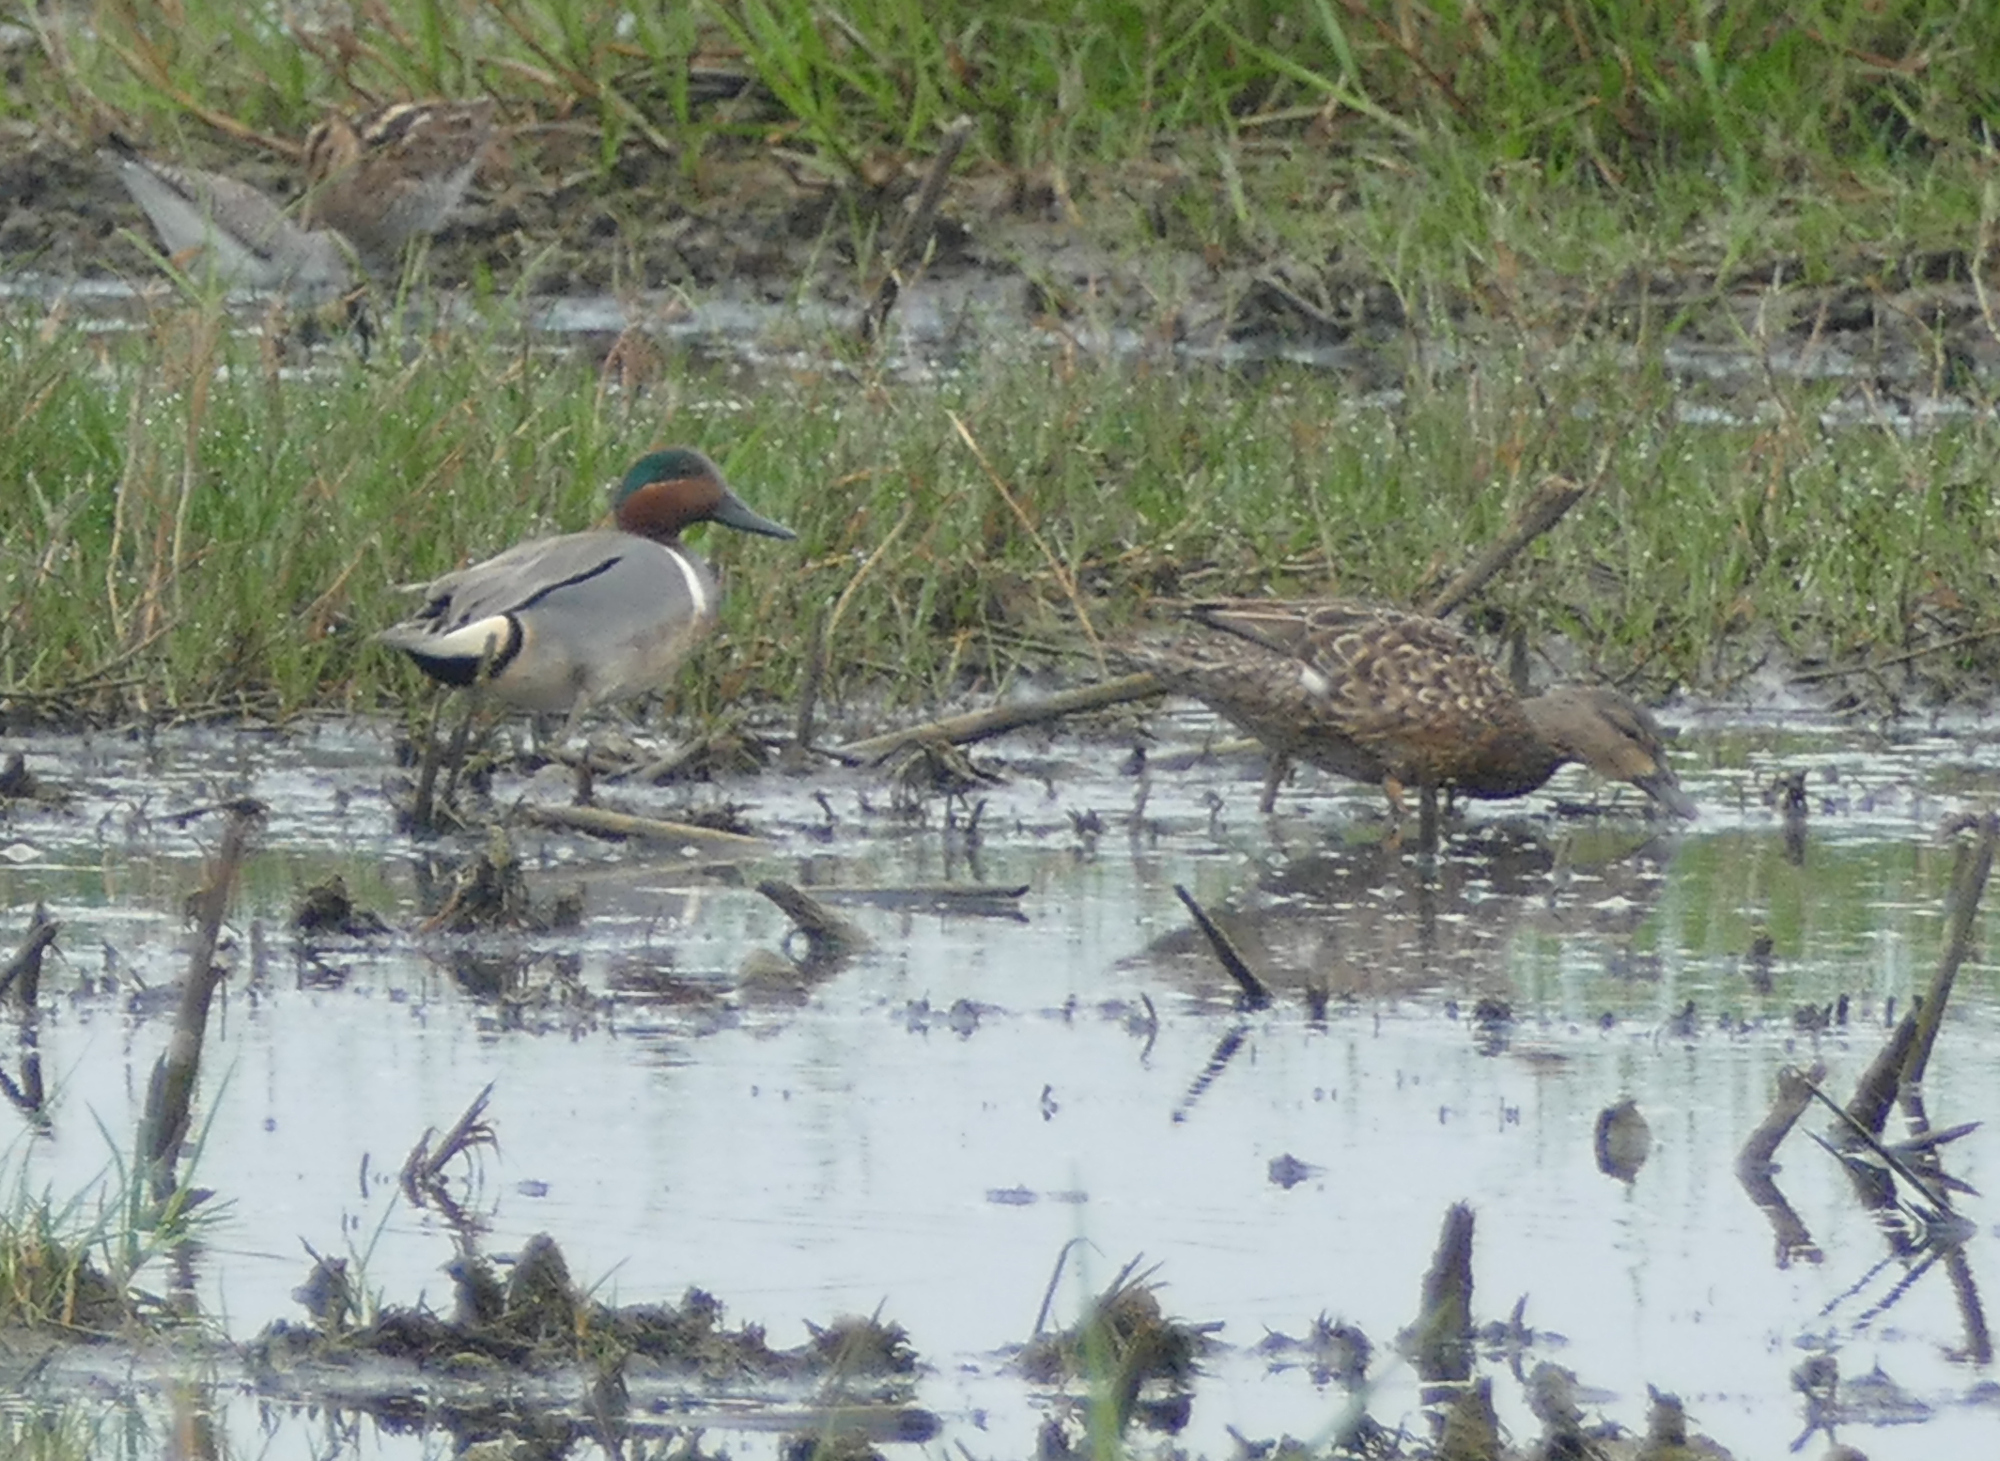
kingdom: Animalia
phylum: Chordata
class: Aves
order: Anseriformes
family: Anatidae
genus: Anas
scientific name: Anas crecca
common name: Eurasian teal
